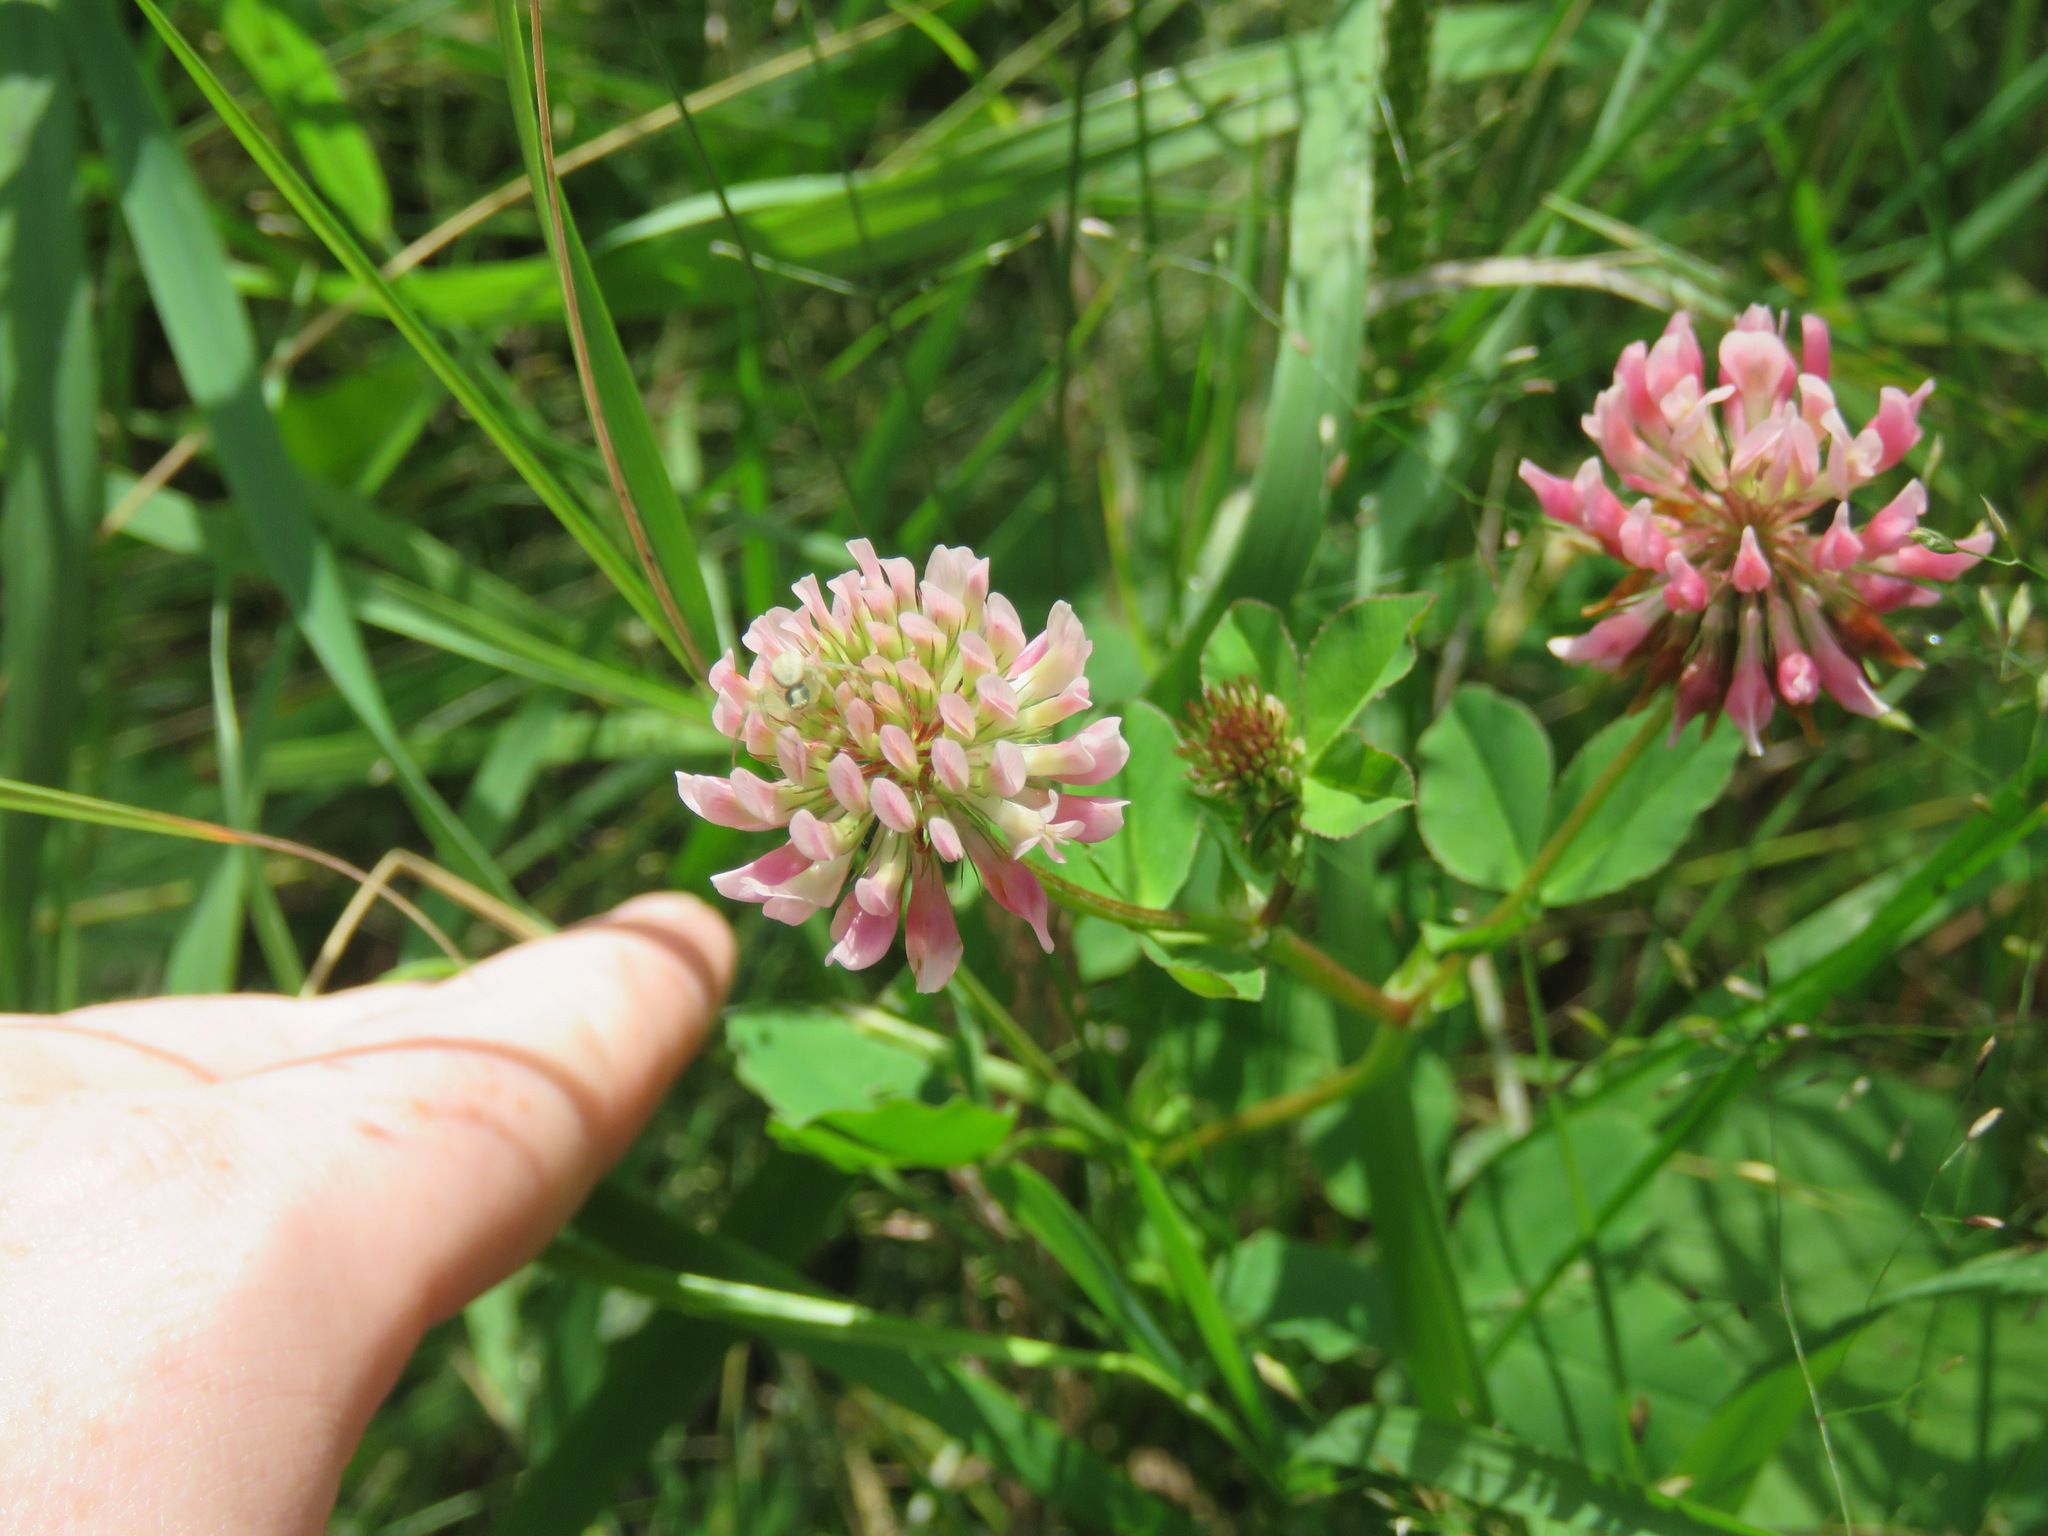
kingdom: Plantae
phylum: Tracheophyta
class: Magnoliopsida
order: Fabales
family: Fabaceae
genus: Trifolium
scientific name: Trifolium hybridum
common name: Alsike clover
